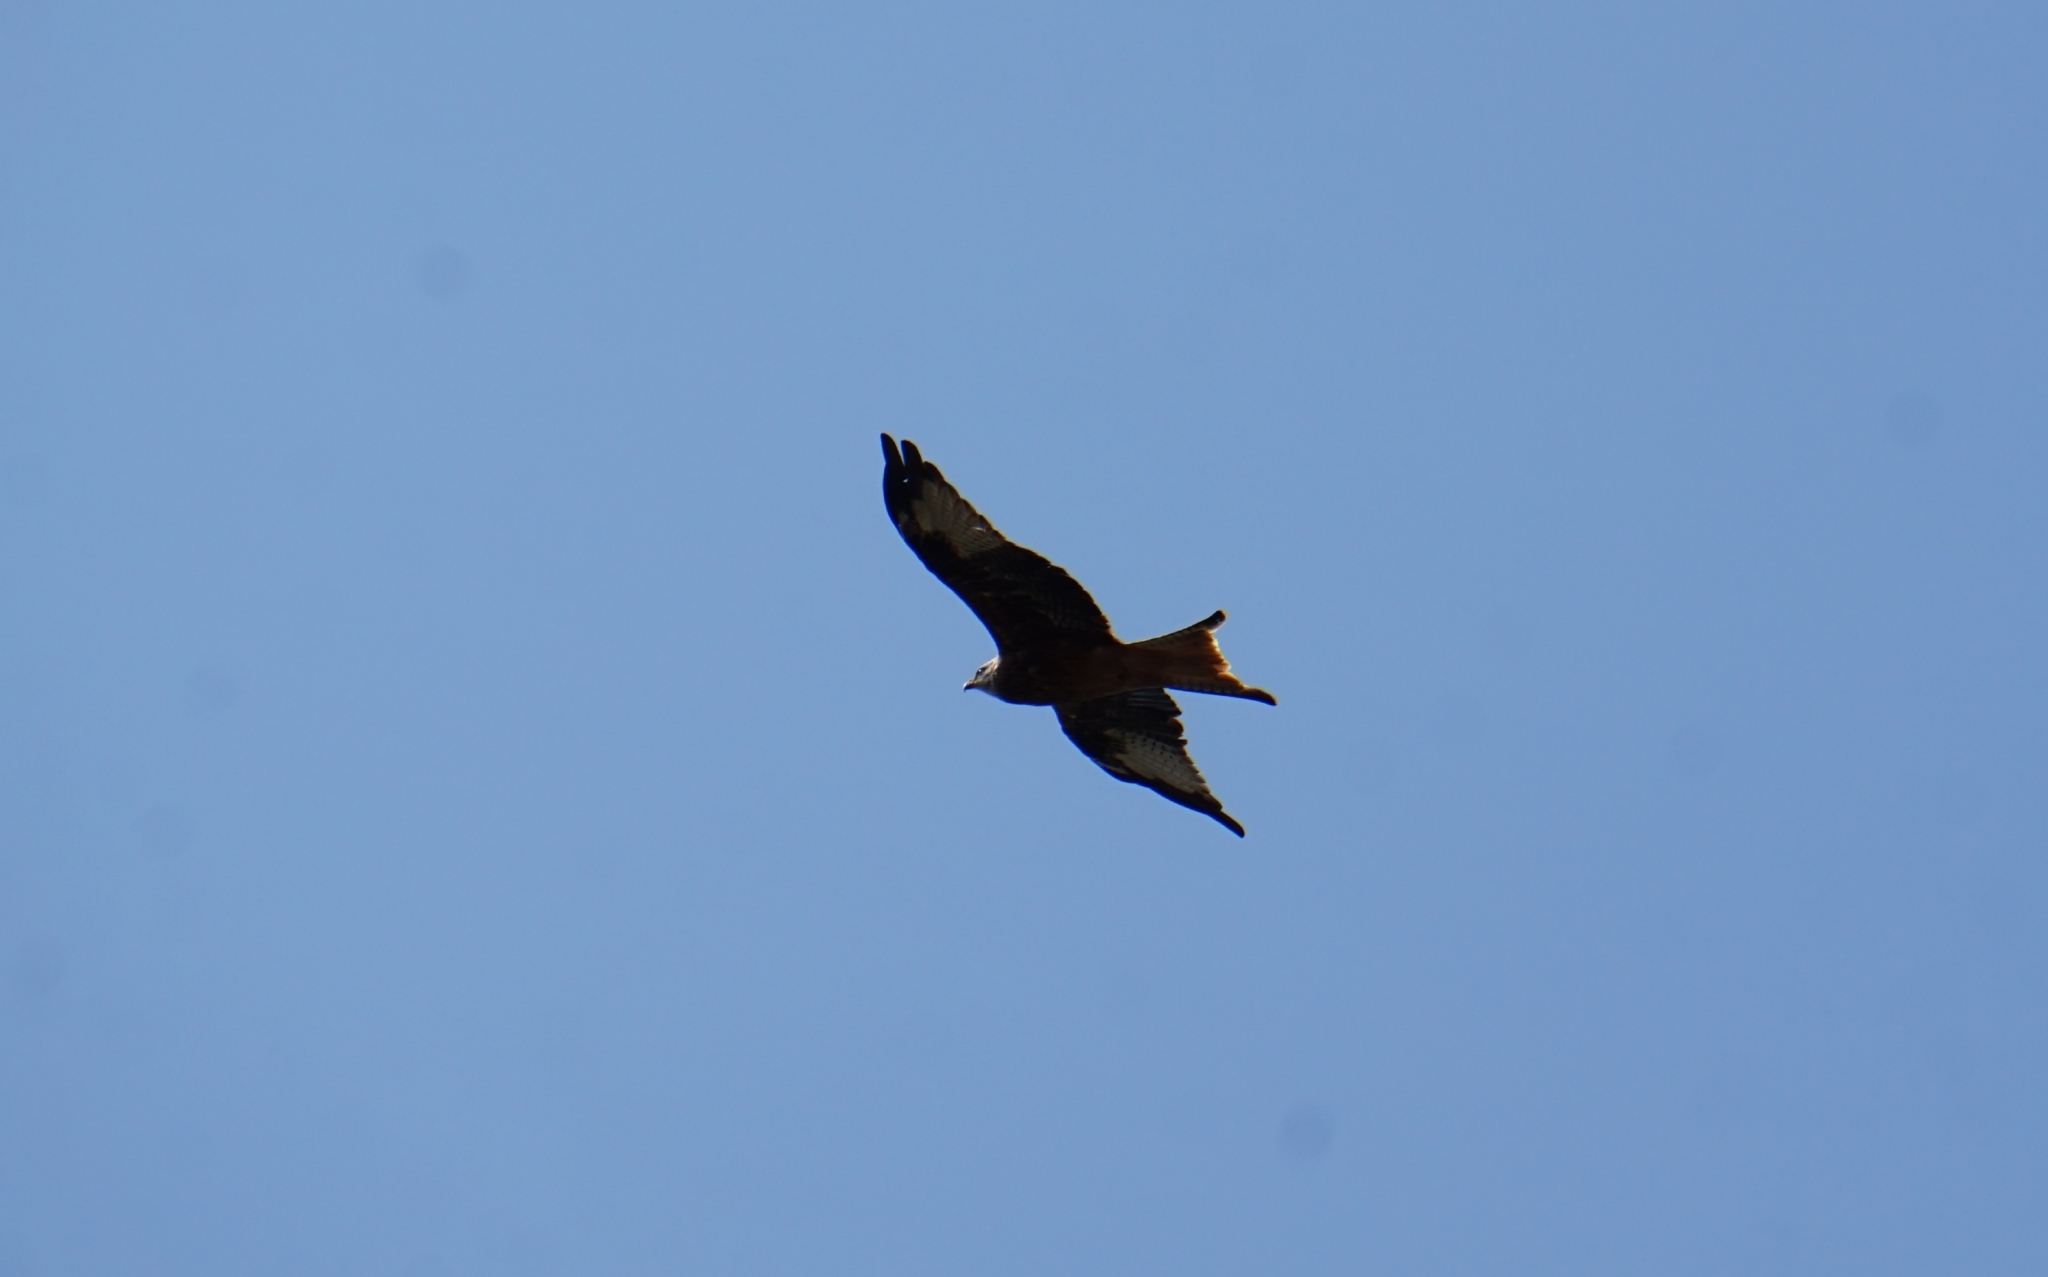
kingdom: Animalia
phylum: Chordata
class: Aves
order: Accipitriformes
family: Accipitridae
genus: Milvus
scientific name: Milvus milvus
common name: Red kite
